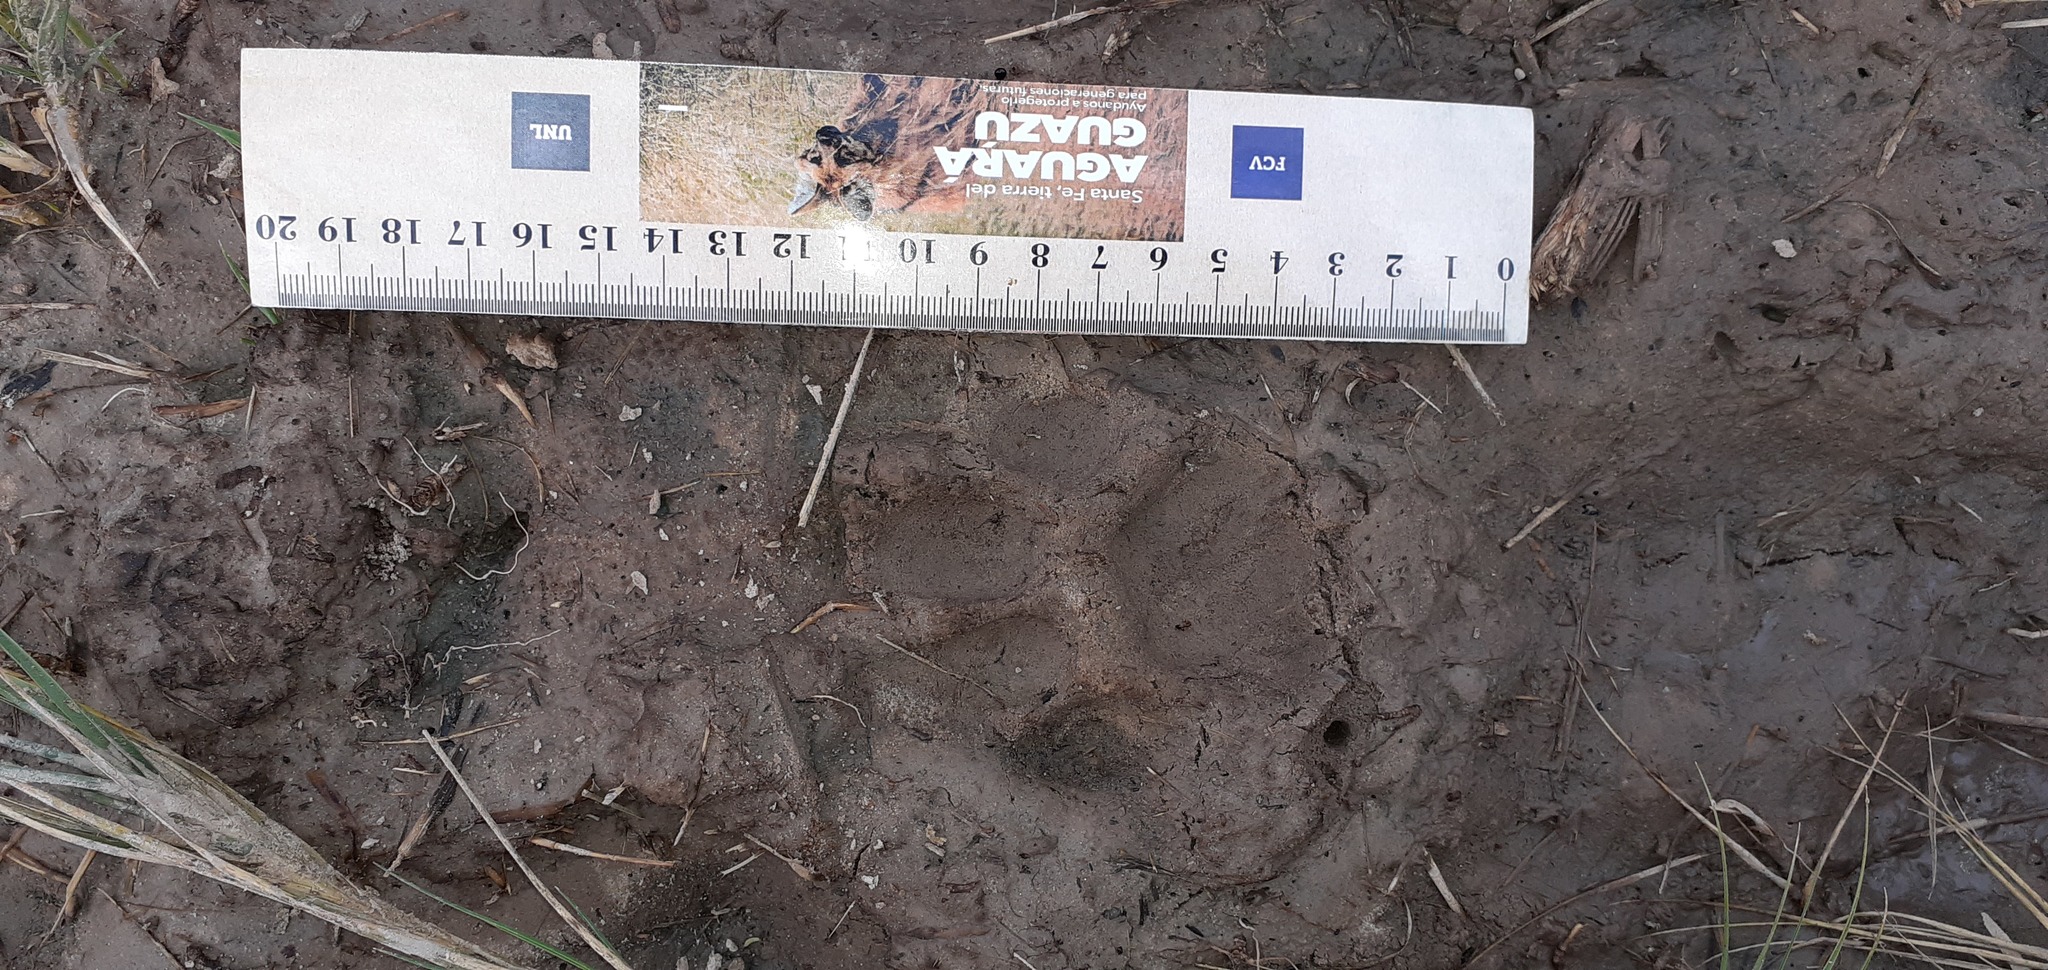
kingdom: Animalia
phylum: Chordata
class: Mammalia
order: Carnivora
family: Felidae
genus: Puma
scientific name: Puma concolor
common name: Puma
